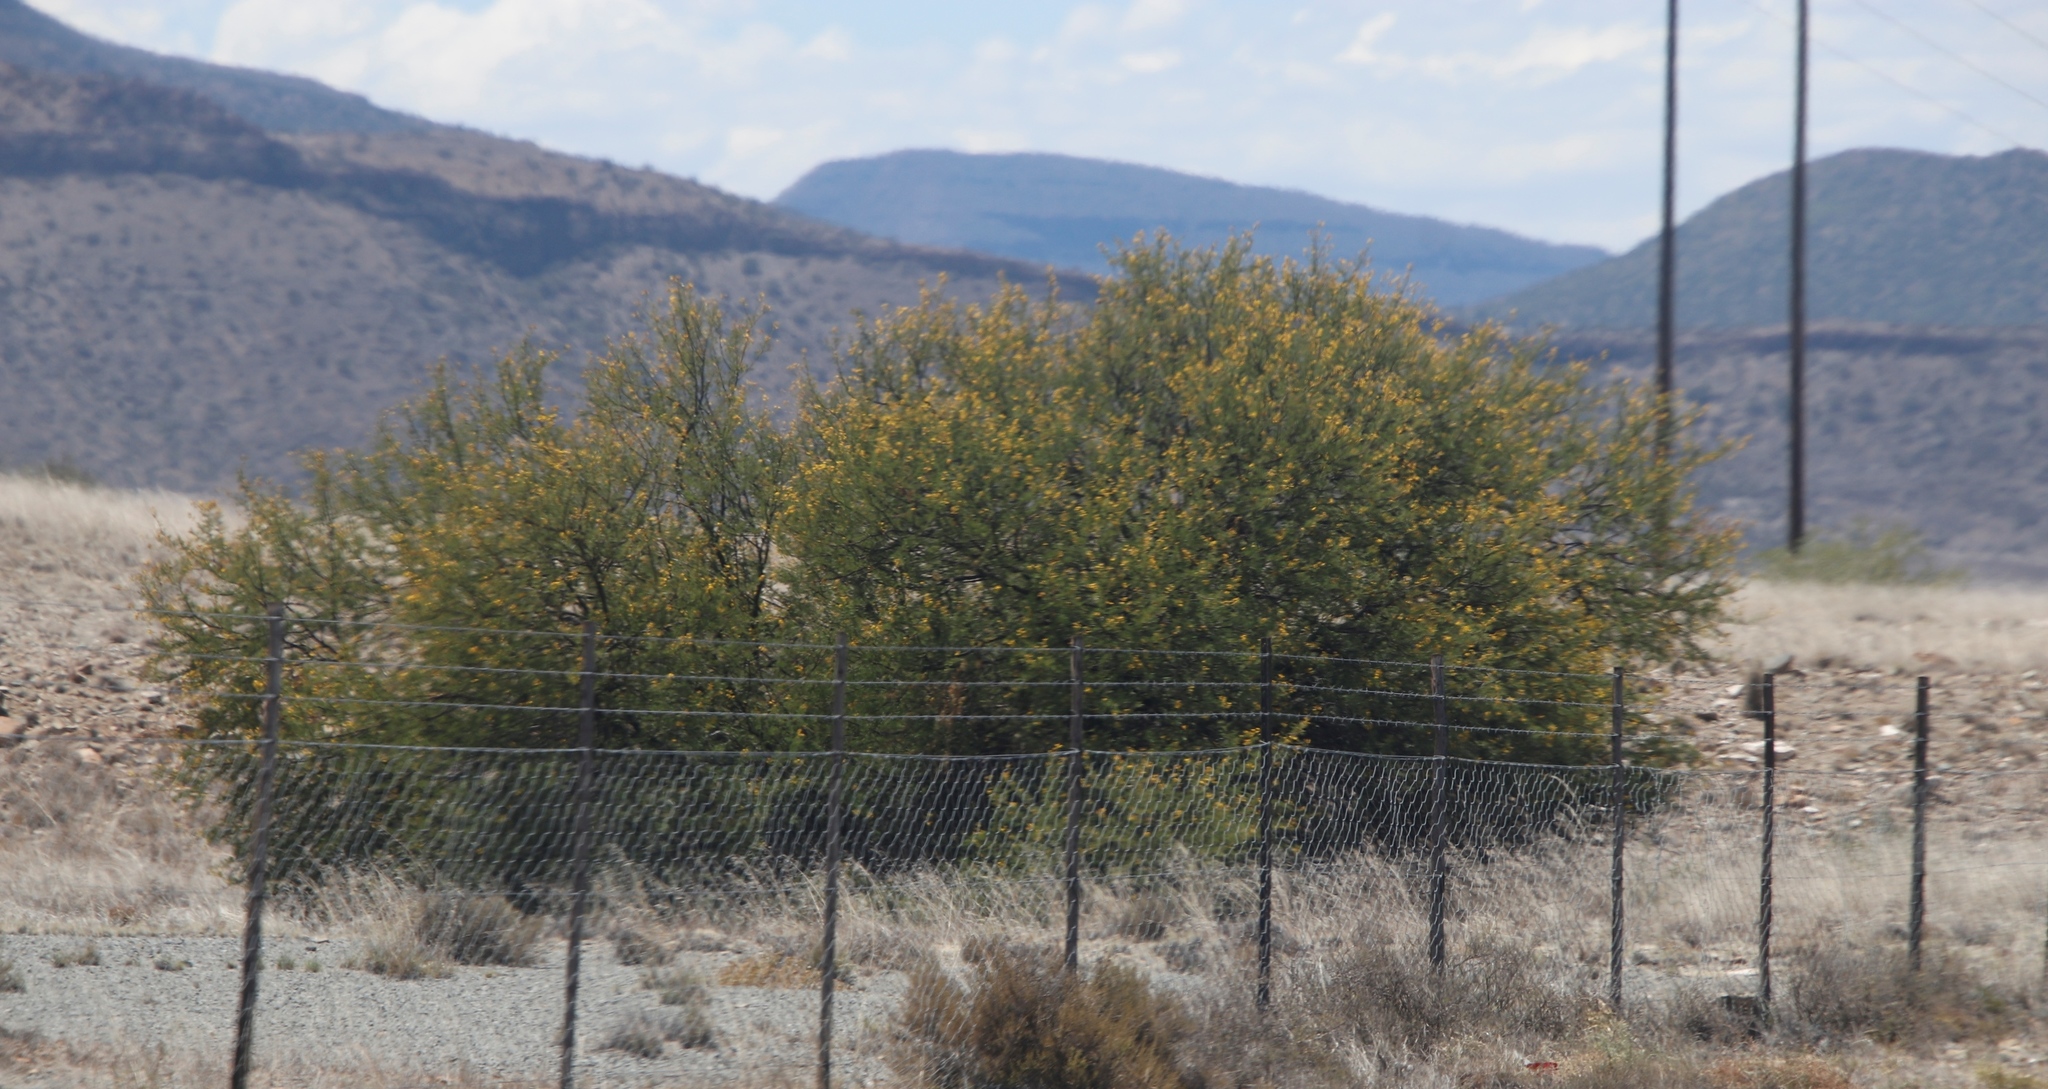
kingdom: Plantae
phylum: Tracheophyta
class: Magnoliopsida
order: Fabales
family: Fabaceae
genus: Vachellia
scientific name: Vachellia karroo
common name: Sweet thorn
